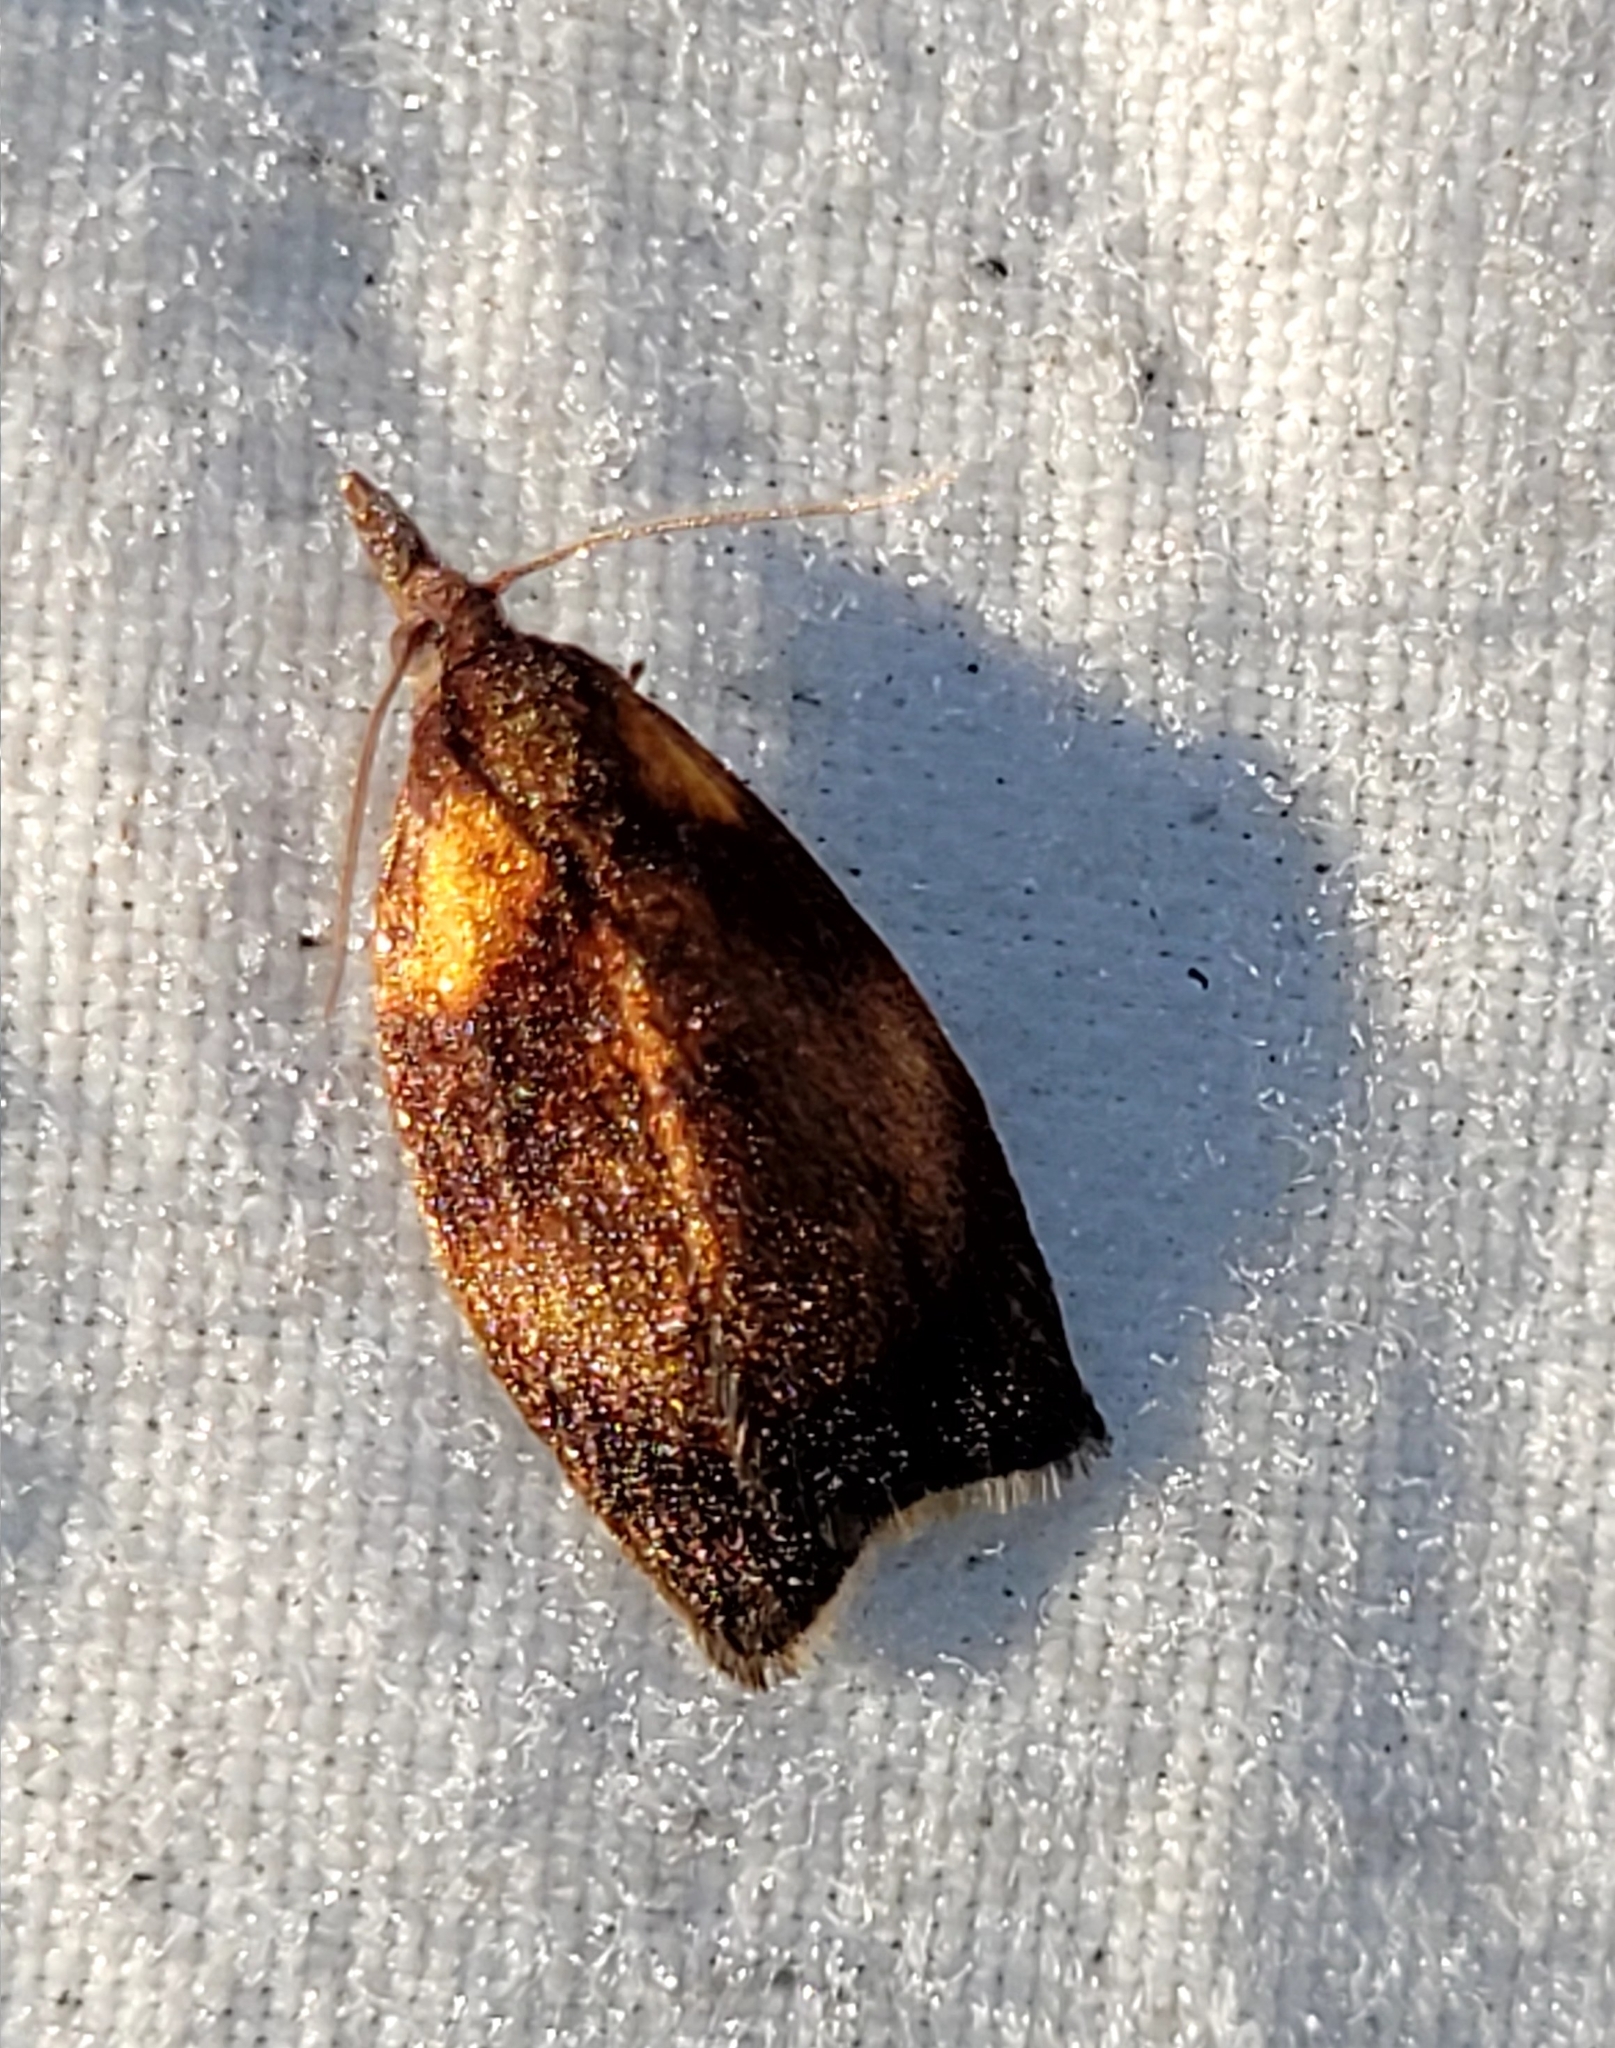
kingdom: Animalia
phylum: Arthropoda
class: Insecta
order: Lepidoptera
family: Tortricidae
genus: Sparganothis
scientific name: Sparganothis flavibasana
